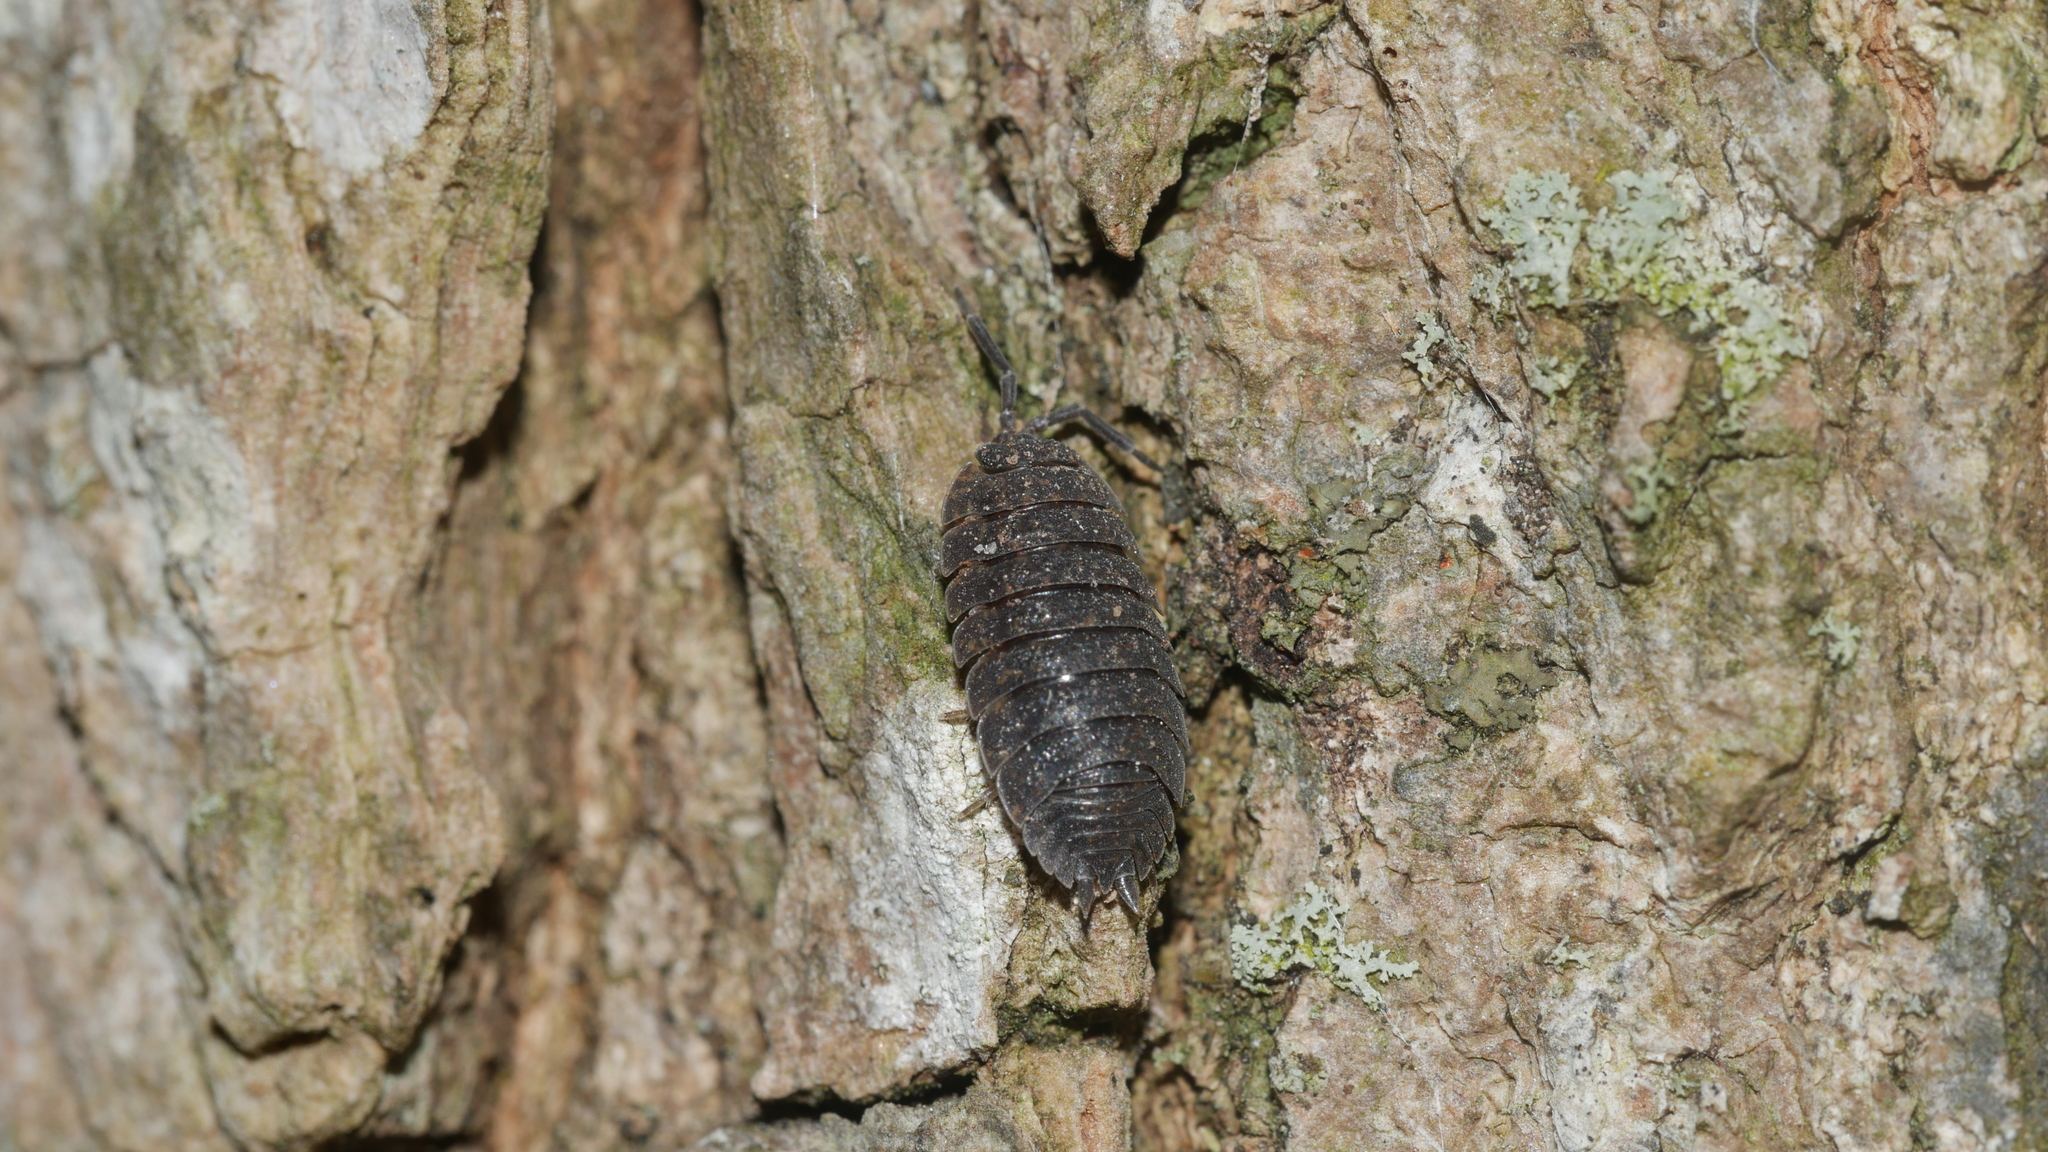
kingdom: Animalia
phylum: Arthropoda
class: Malacostraca
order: Isopoda
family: Porcellionidae
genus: Porcellio
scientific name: Porcellio scaber
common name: Common rough woodlouse
